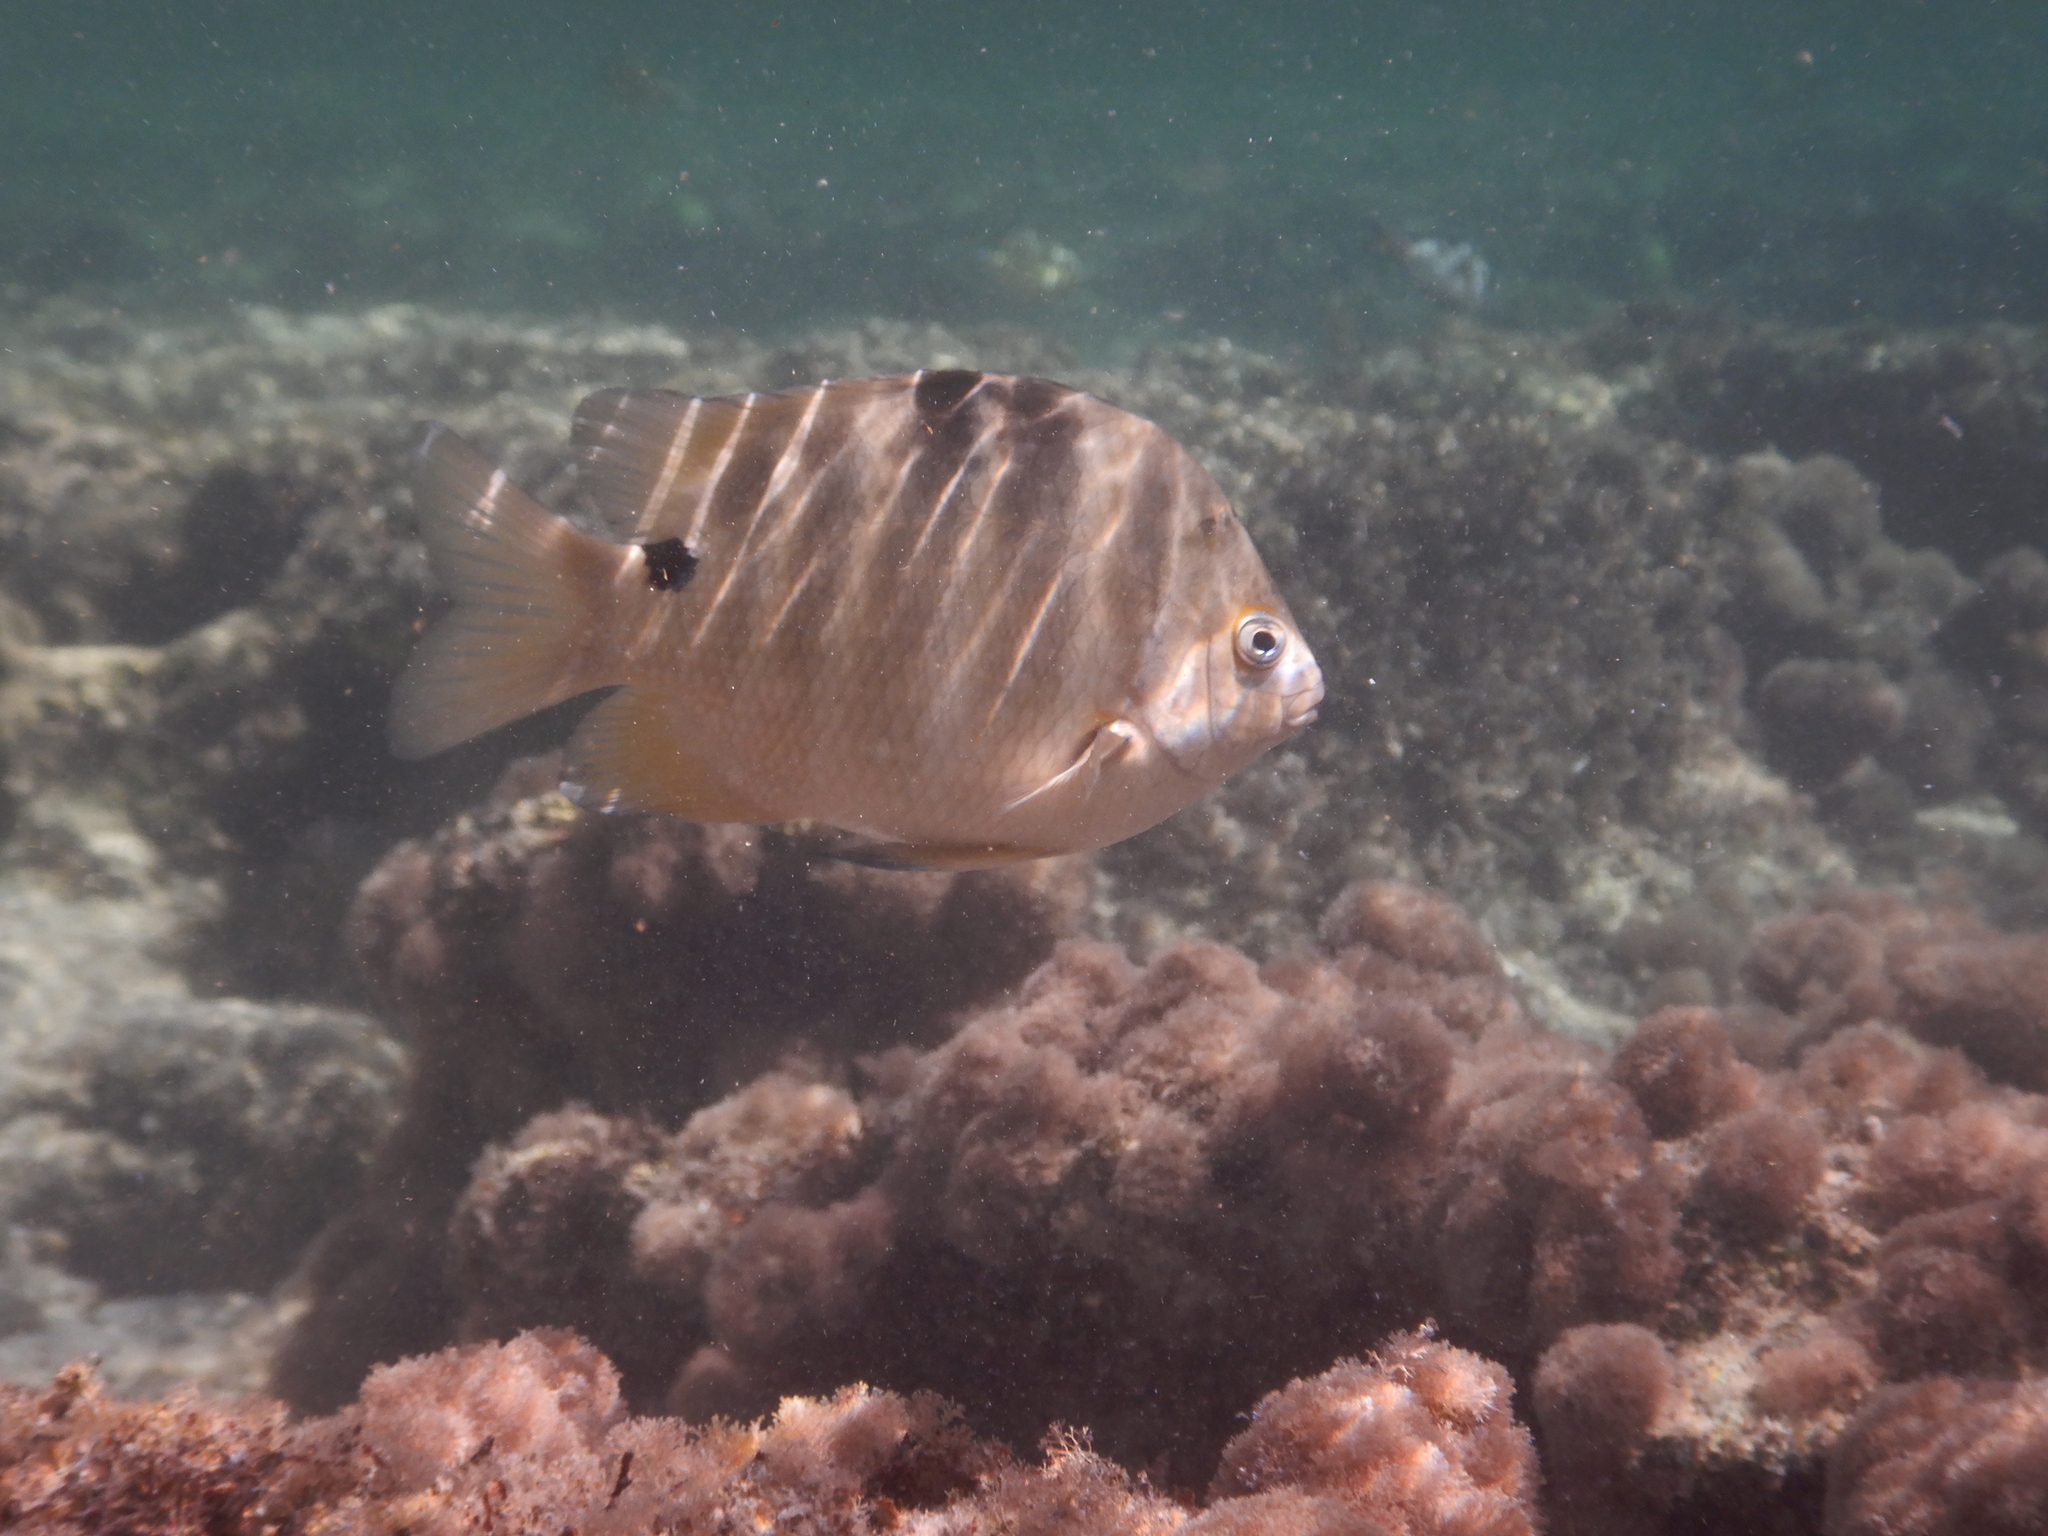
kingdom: Animalia
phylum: Chordata
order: Perciformes
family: Pomacentridae
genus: Abudefduf
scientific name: Abudefduf sordidus
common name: Blackspot sergeant
